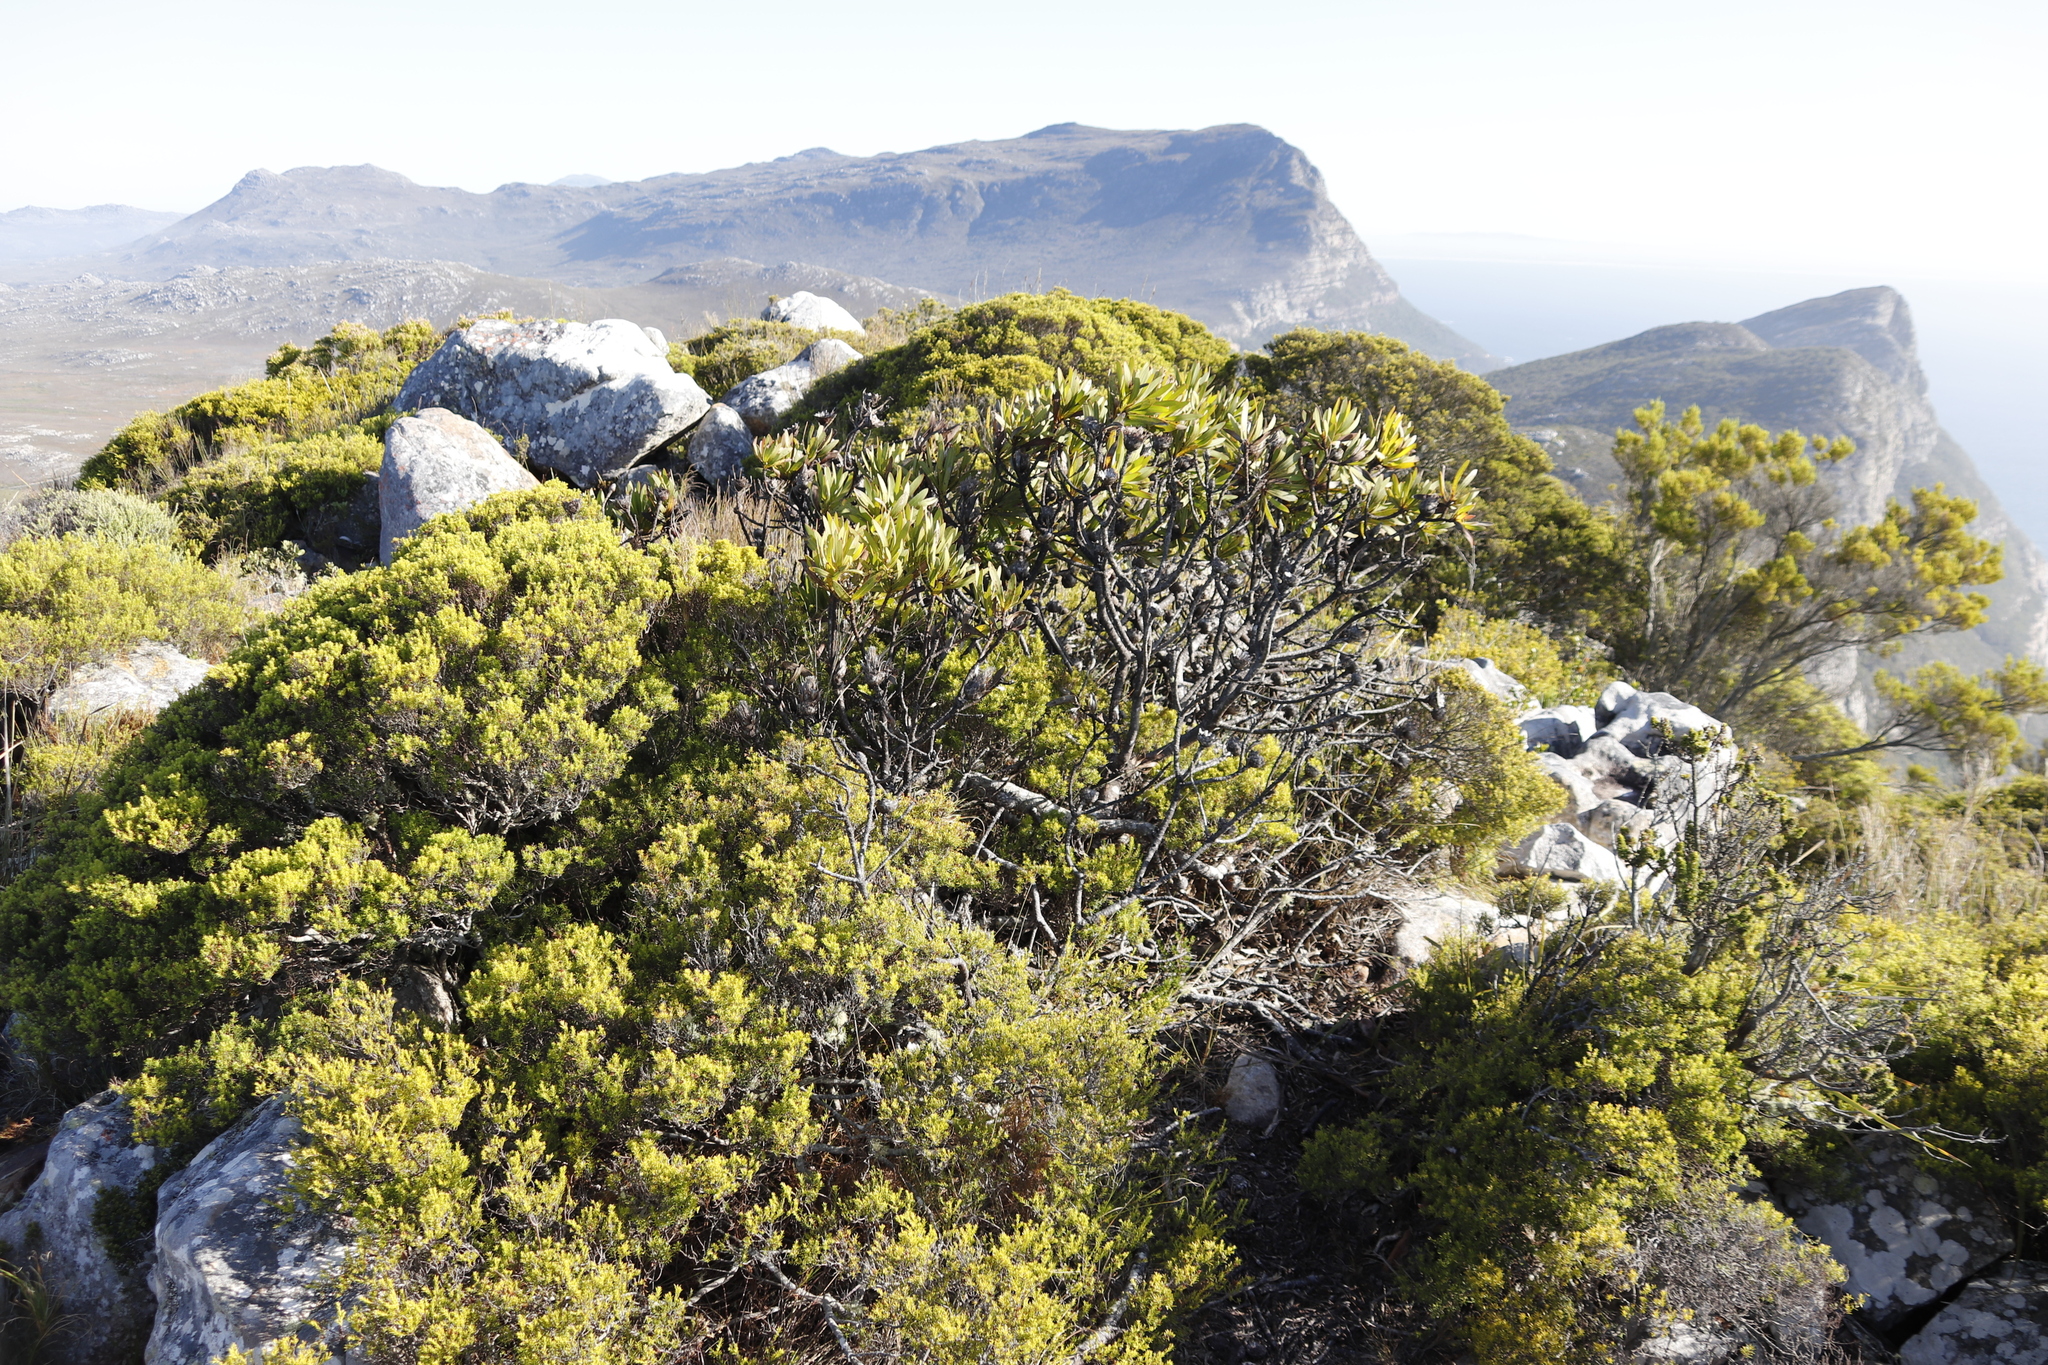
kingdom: Plantae
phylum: Tracheophyta
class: Magnoliopsida
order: Proteales
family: Proteaceae
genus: Protea
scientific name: Protea lepidocarpodendron
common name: Black-bearded protea
